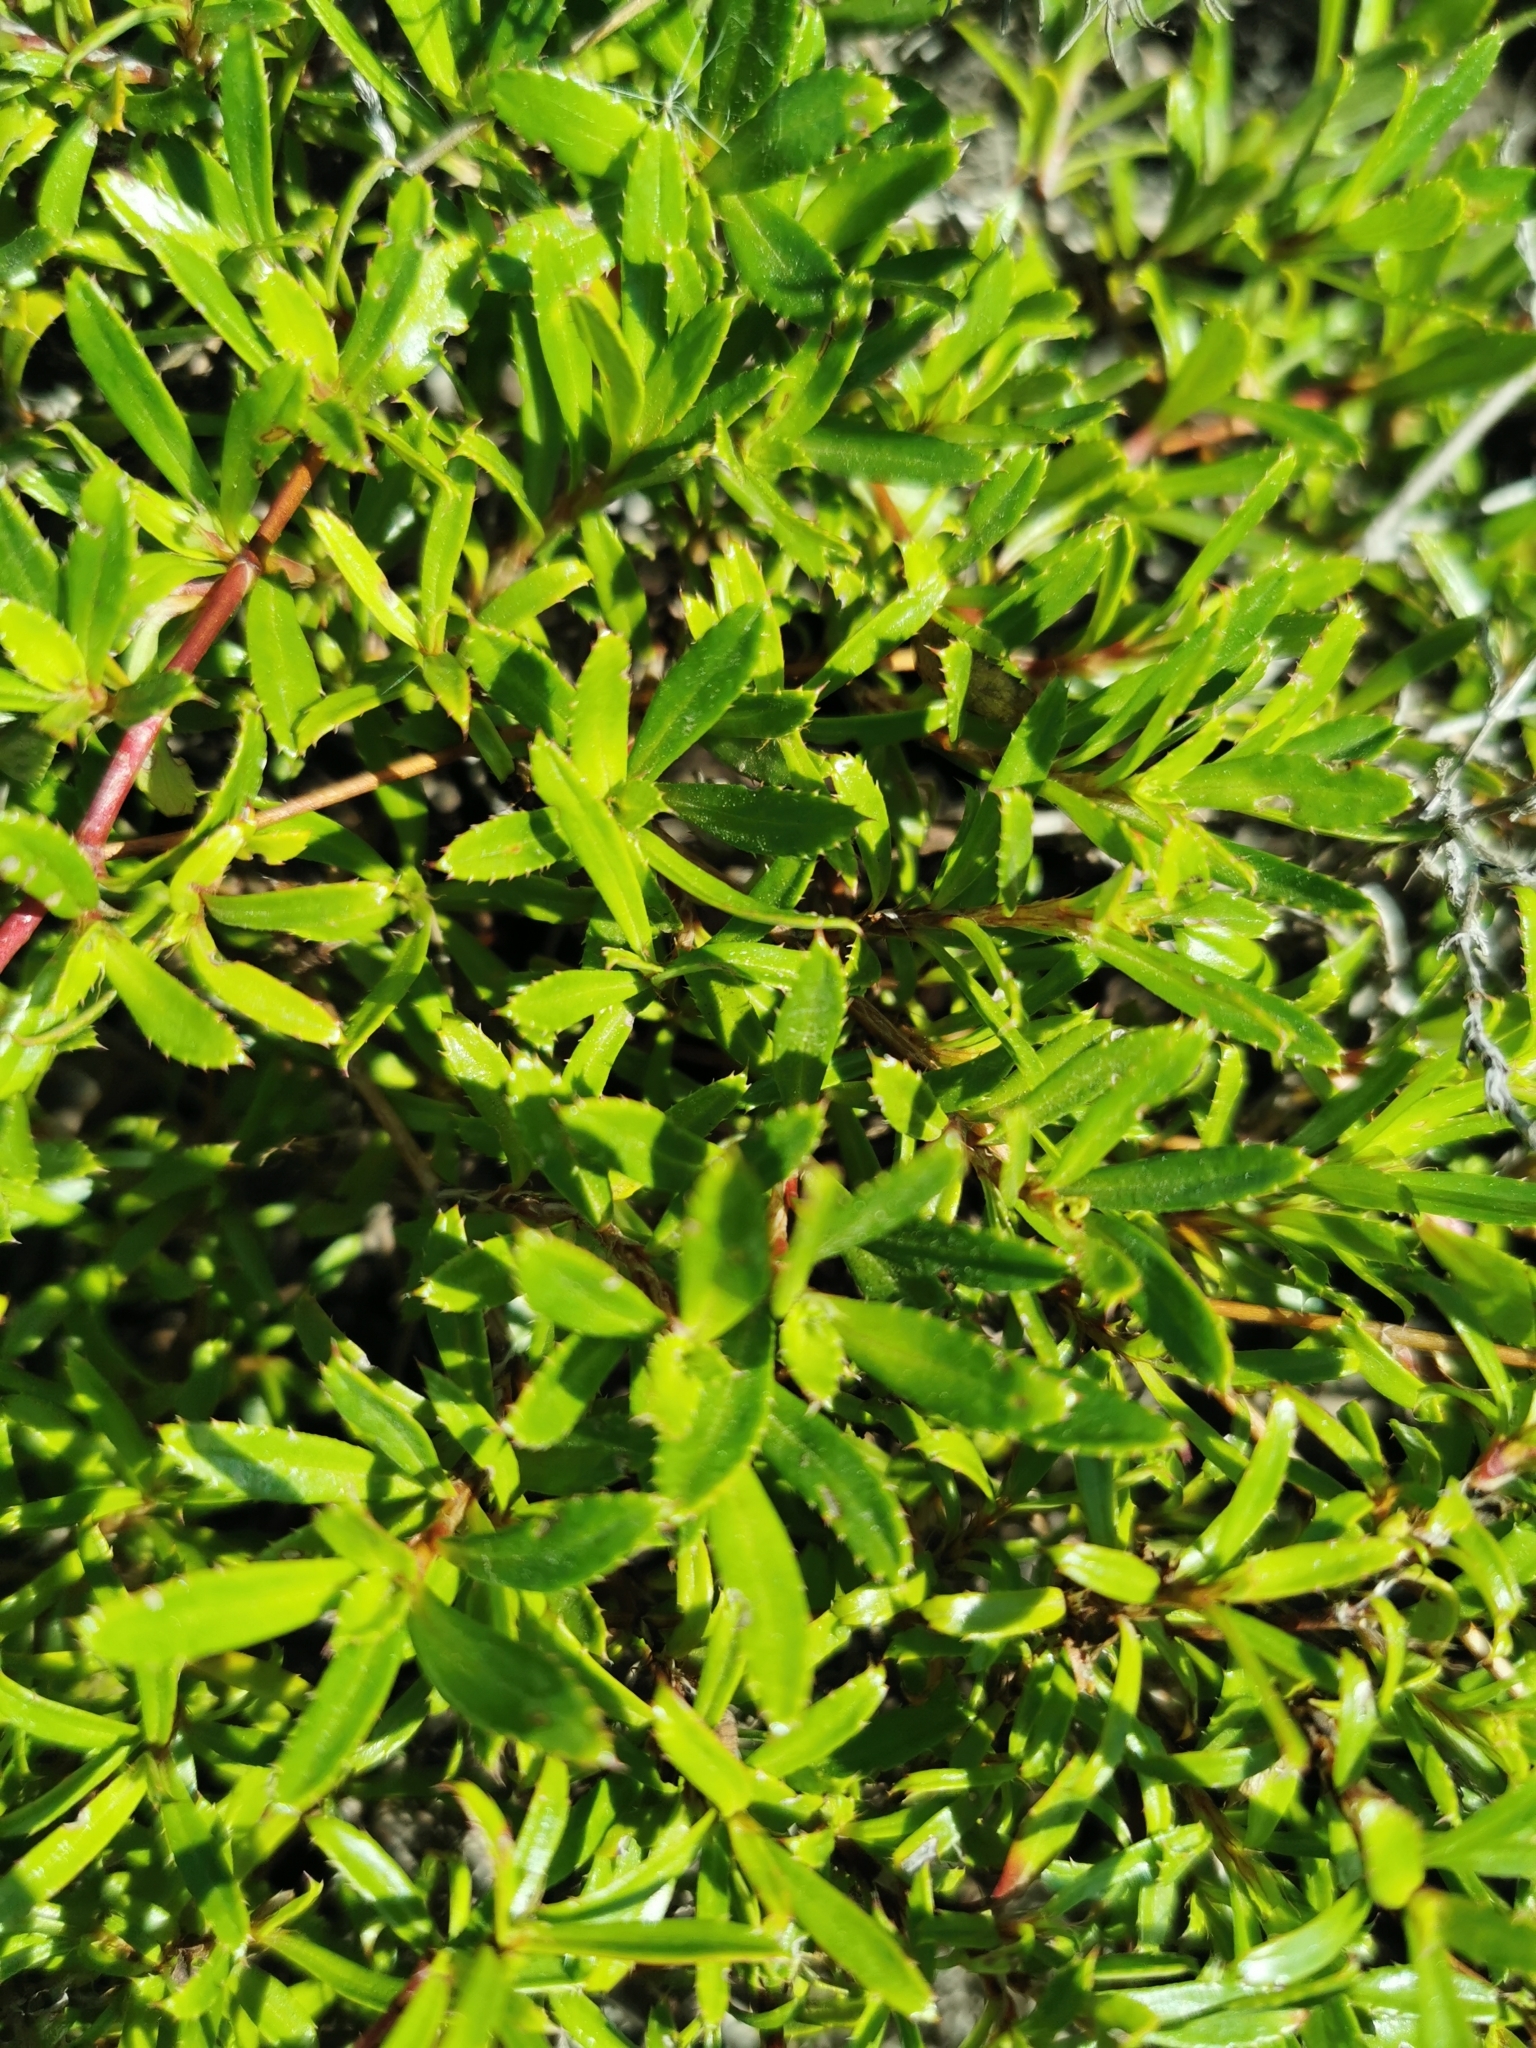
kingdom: Plantae
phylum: Tracheophyta
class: Magnoliopsida
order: Rosales
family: Rosaceae
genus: Cliffortia
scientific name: Cliffortia ferruginea
